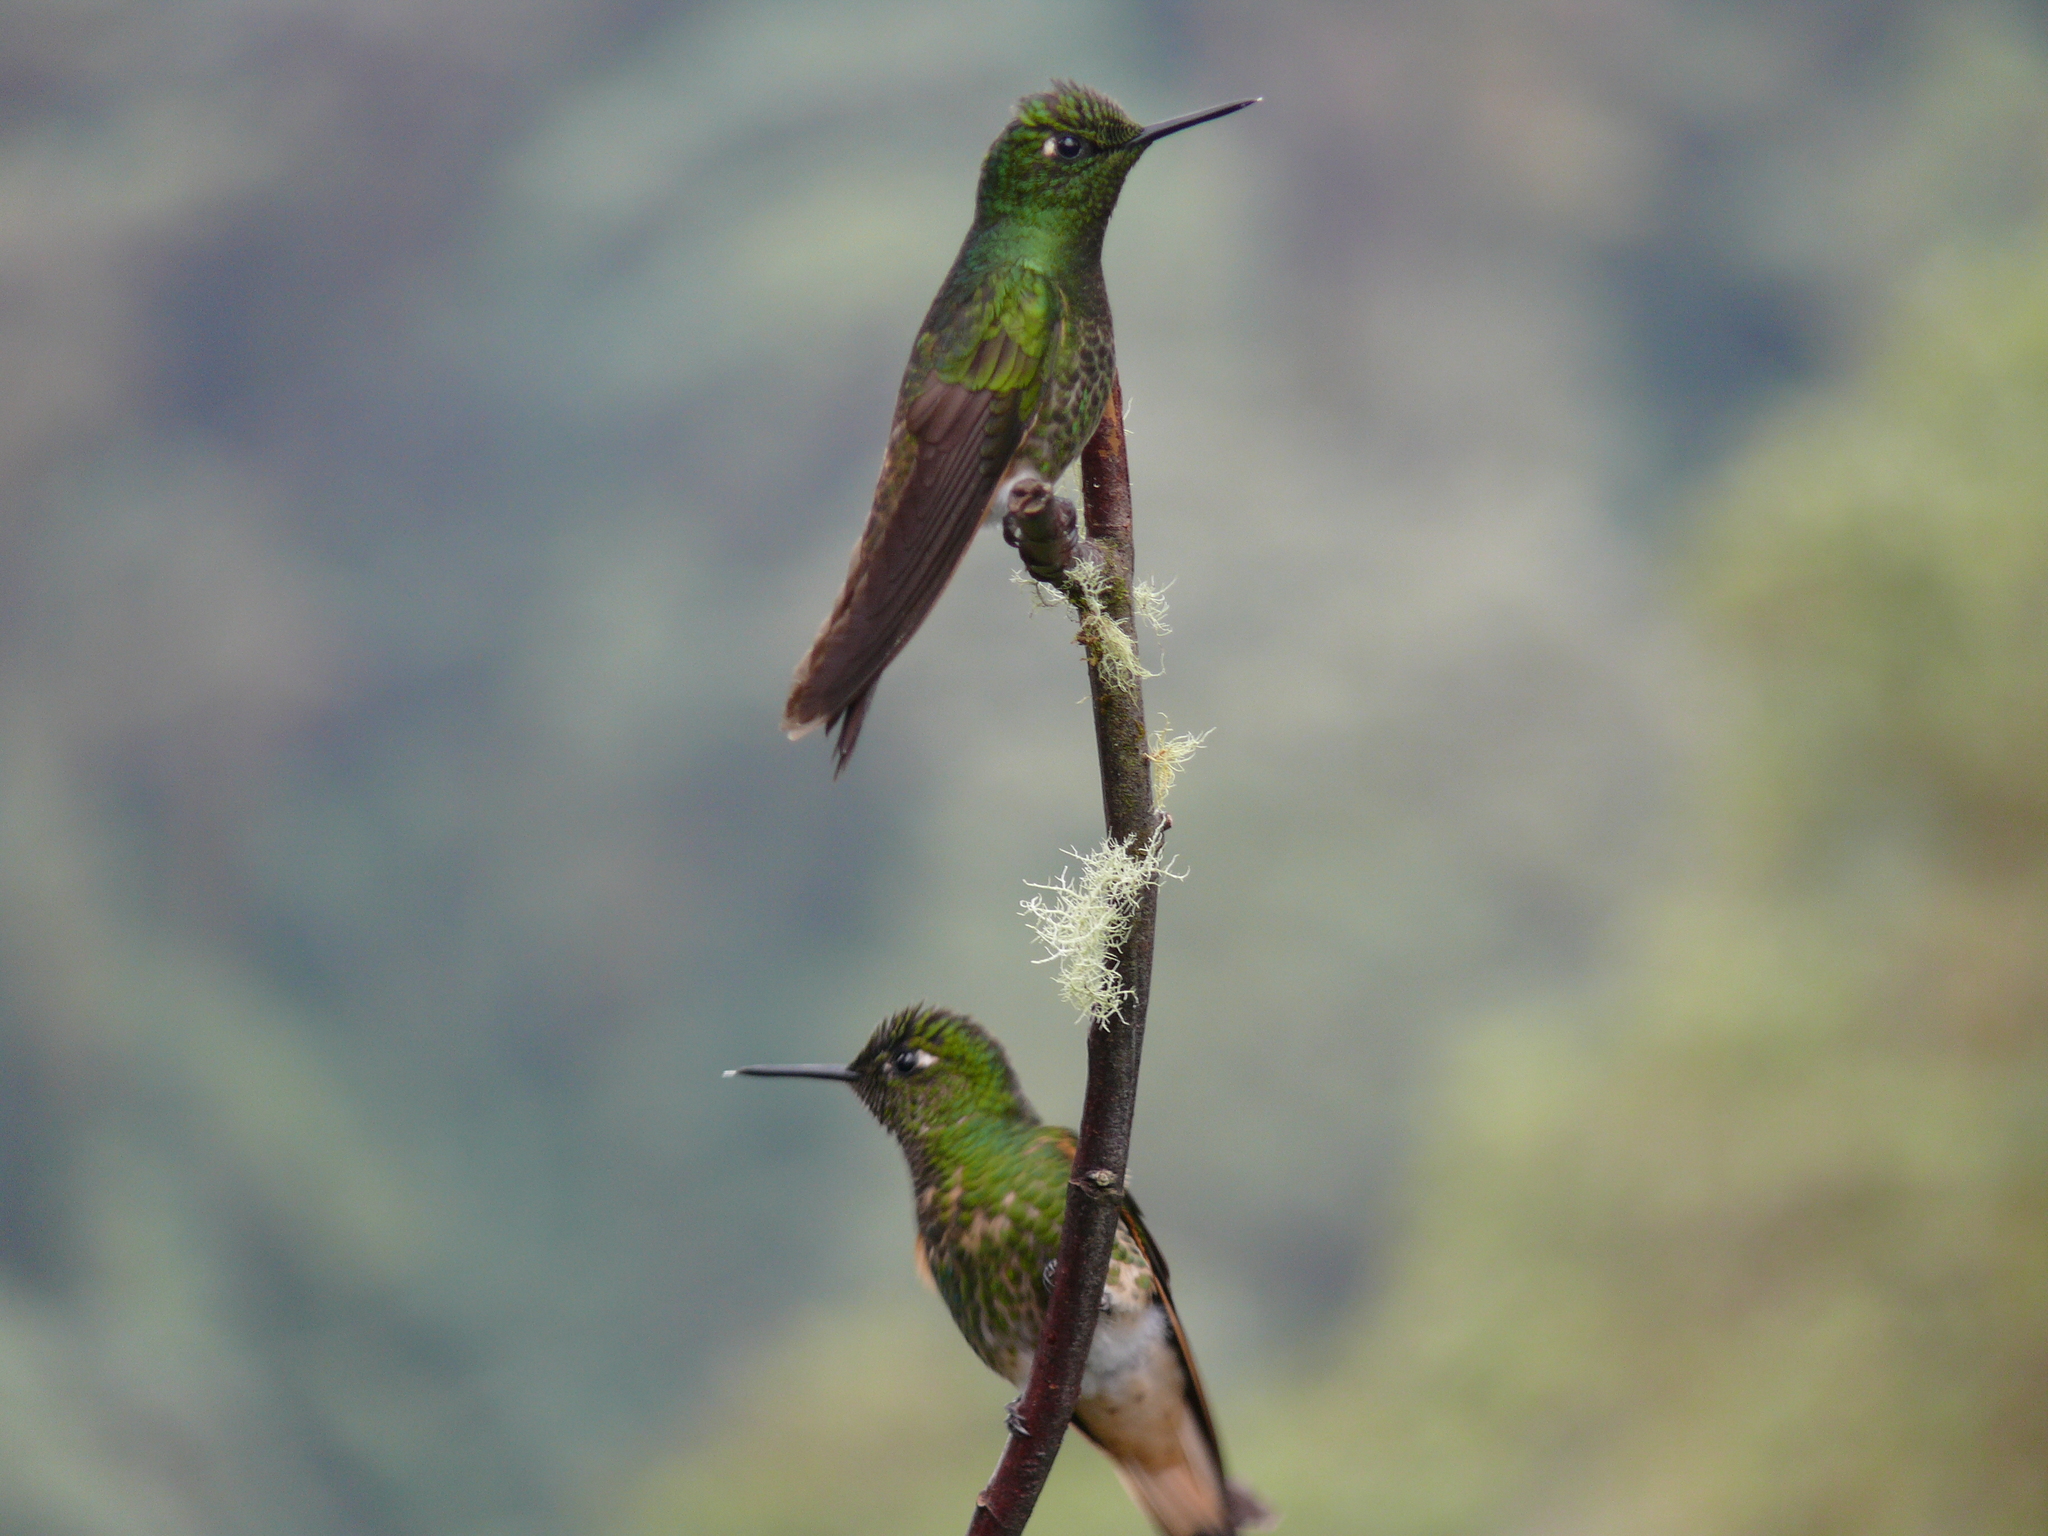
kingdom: Animalia
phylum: Chordata
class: Aves
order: Apodiformes
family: Trochilidae
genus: Boissonneaua
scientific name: Boissonneaua flavescens
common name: Buff-tailed coronet
